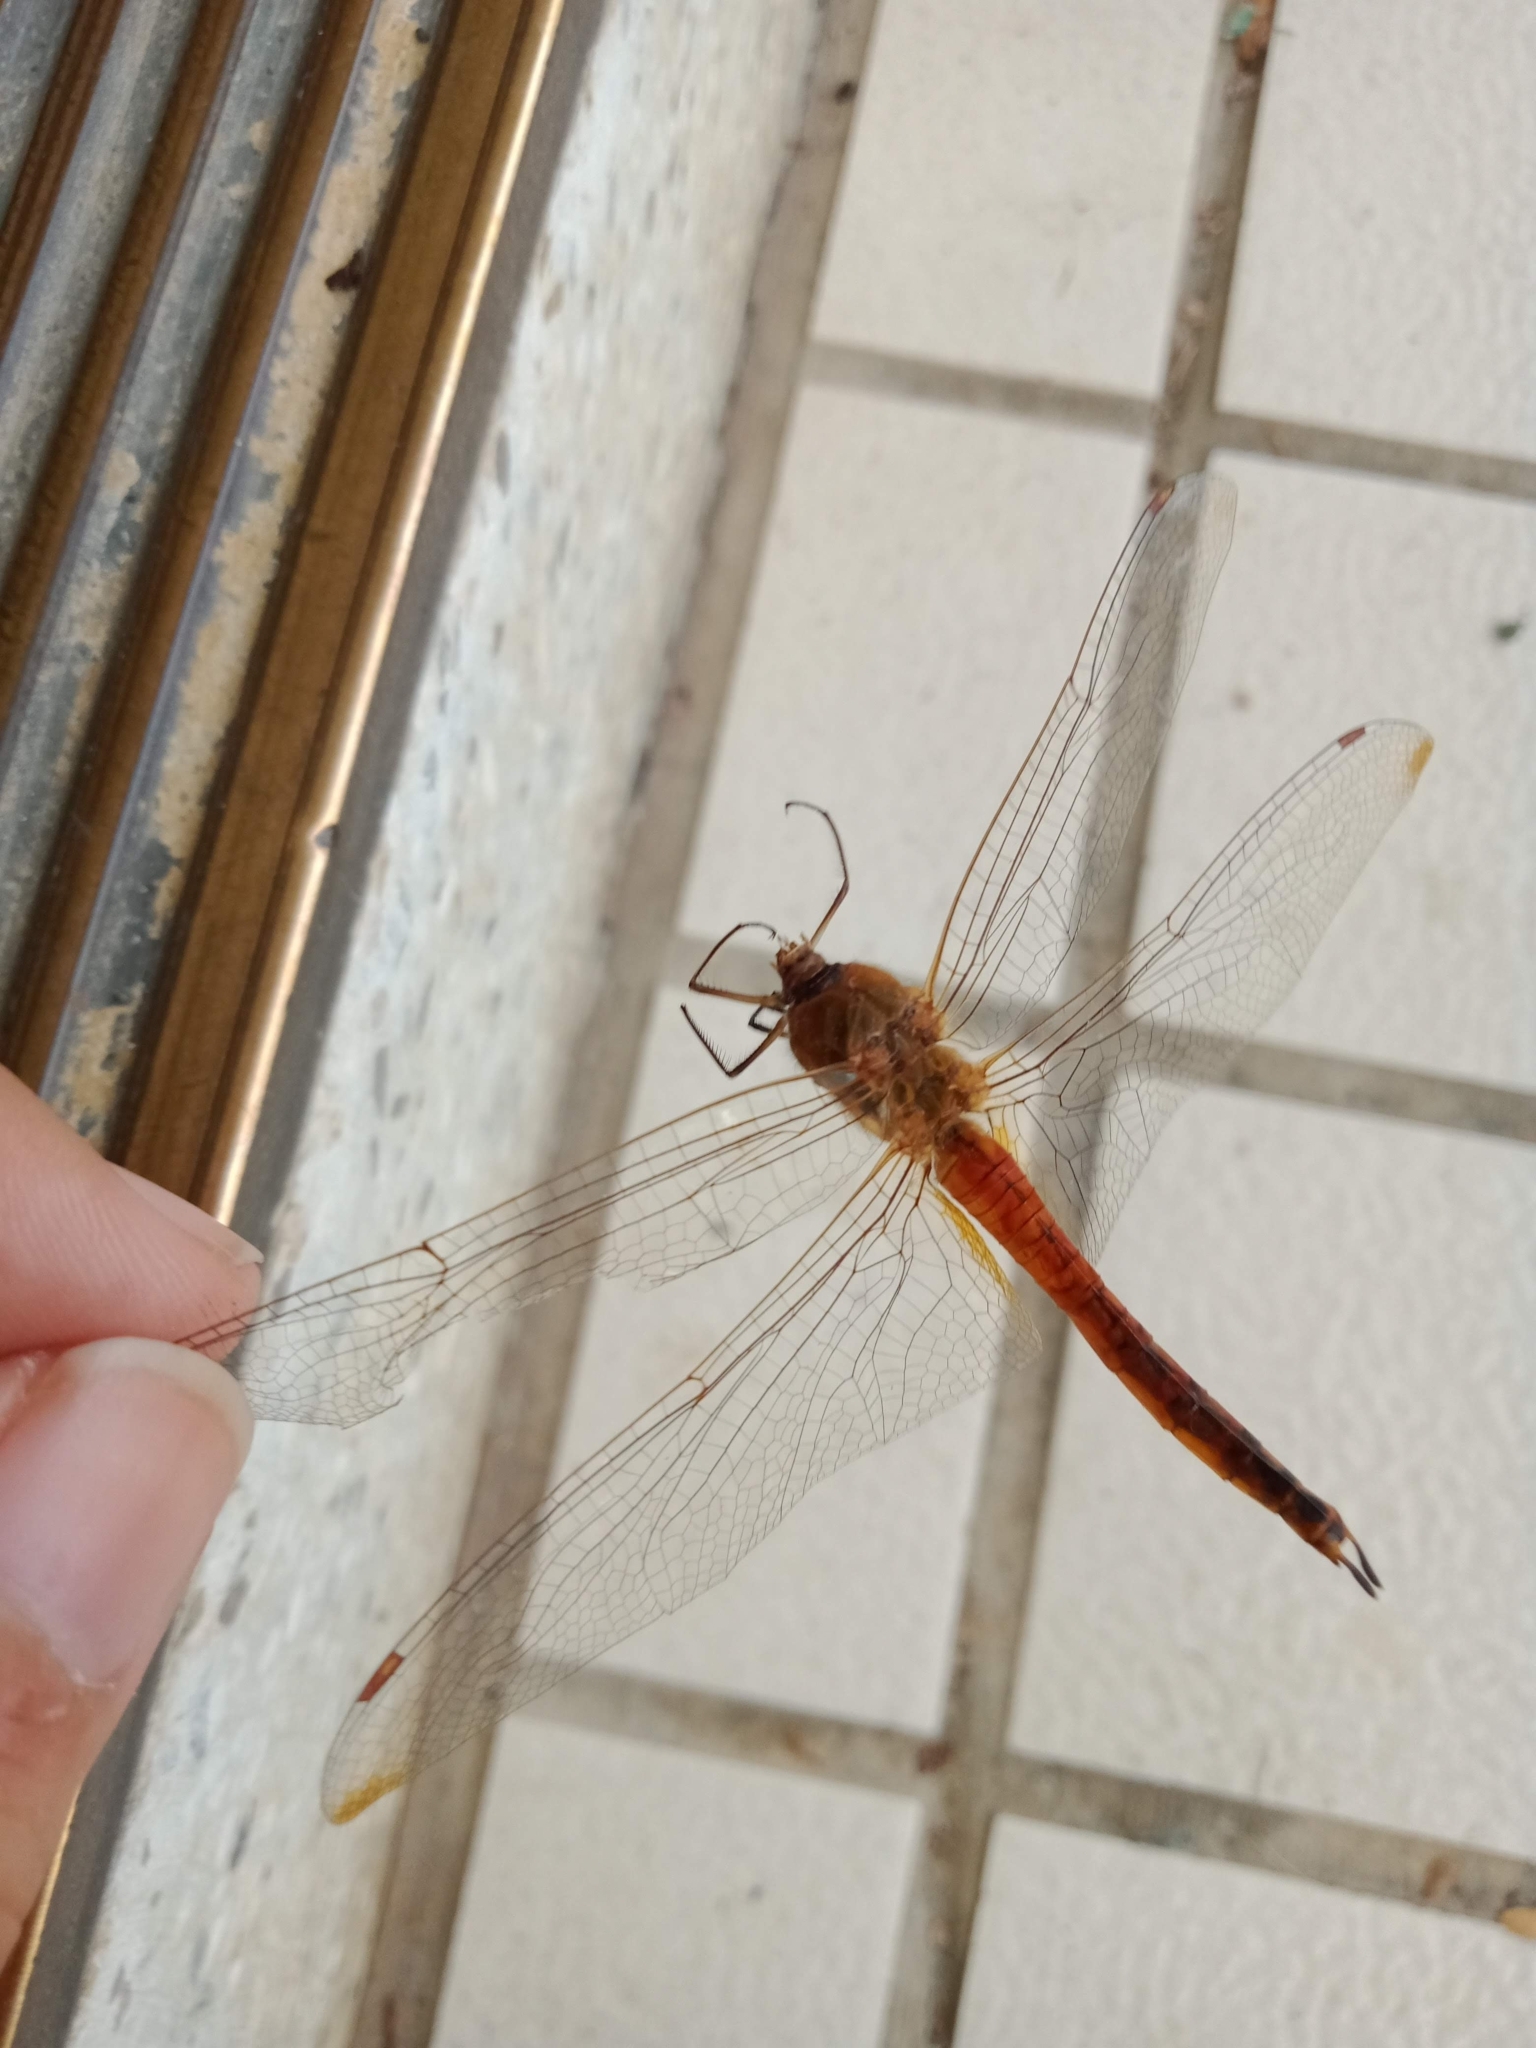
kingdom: Animalia
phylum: Arthropoda
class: Insecta
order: Odonata
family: Libellulidae
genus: Pantala
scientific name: Pantala flavescens
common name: Wandering glider
